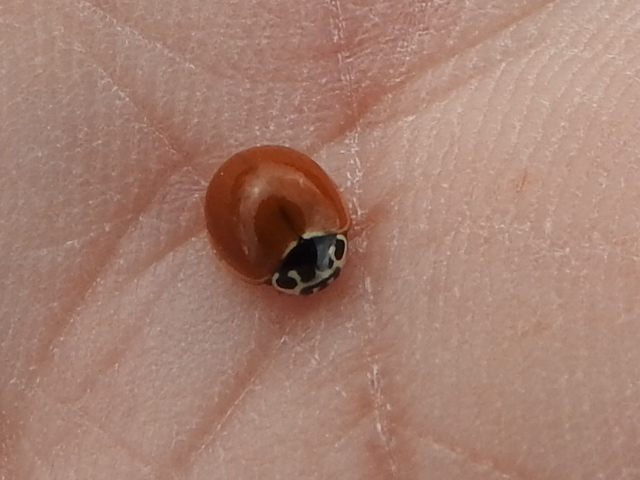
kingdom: Animalia
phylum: Arthropoda
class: Insecta
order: Coleoptera
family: Coccinellidae
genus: Cycloneda
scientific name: Cycloneda munda
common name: Polished lady beetle
